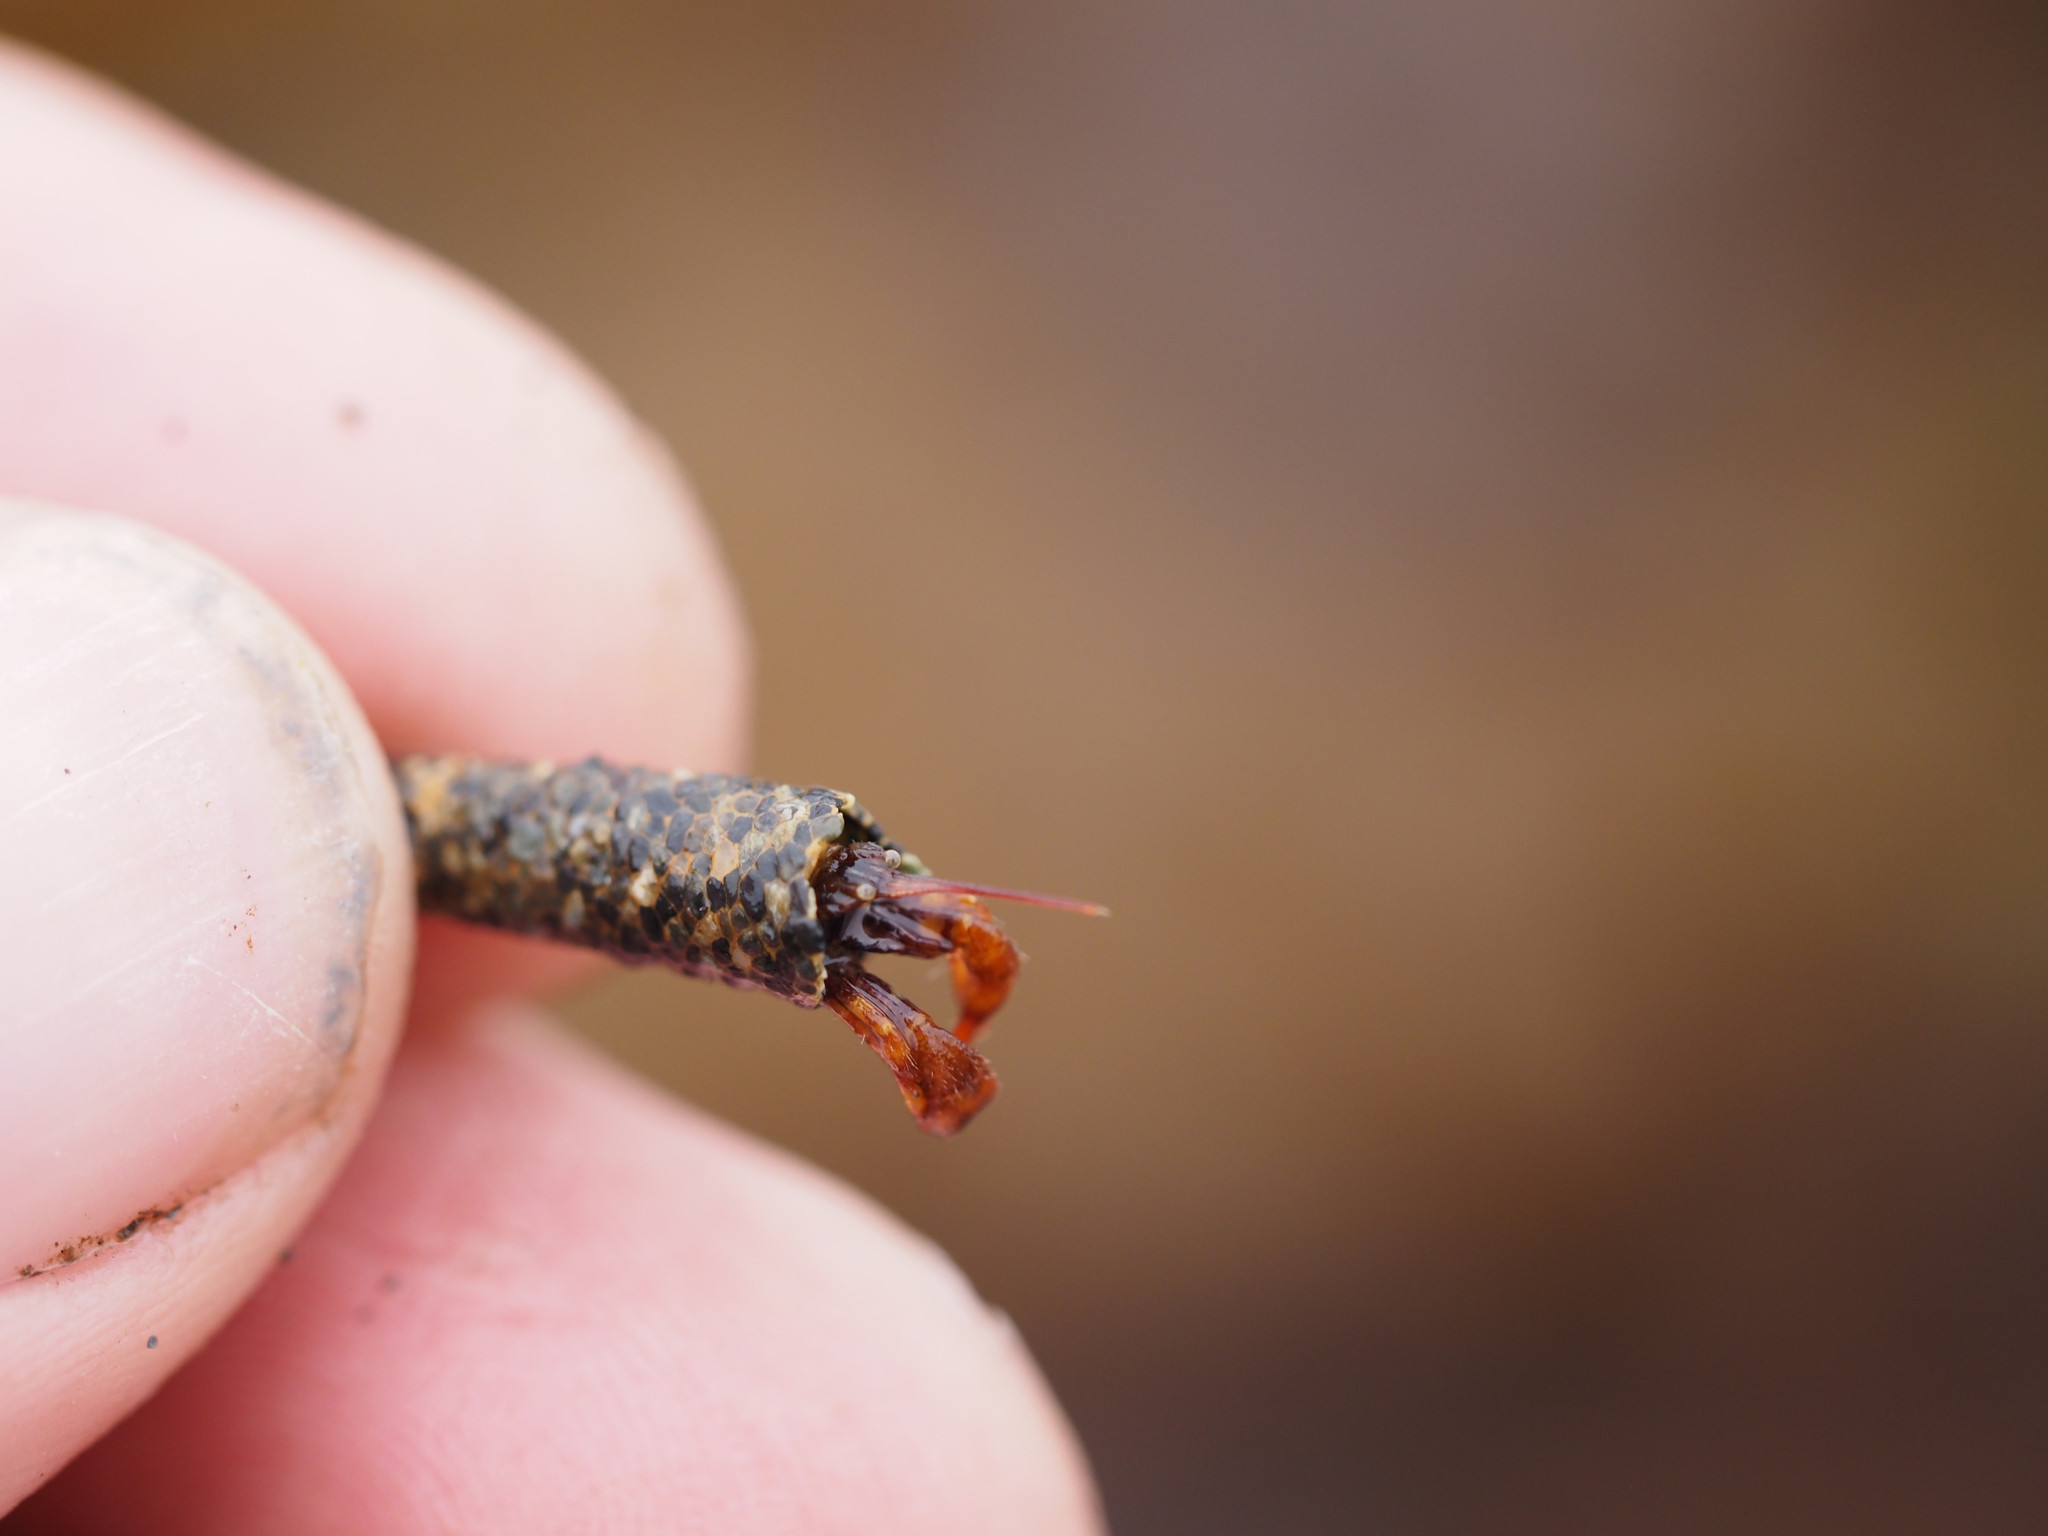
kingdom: Animalia
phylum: Arthropoda
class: Malacostraca
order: Decapoda
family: Paguridae
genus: Discorsopagurus
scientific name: Discorsopagurus schmitti
